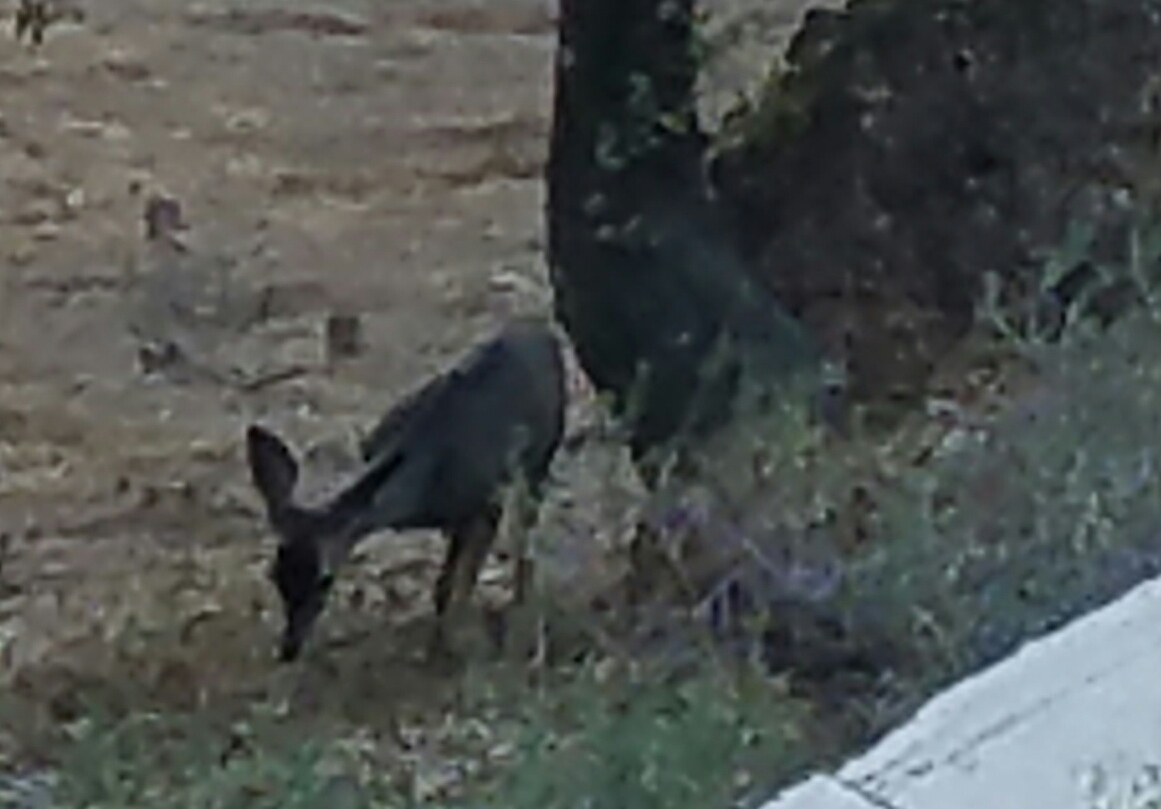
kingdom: Animalia
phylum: Chordata
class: Mammalia
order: Artiodactyla
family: Cervidae
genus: Odocoileus
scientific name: Odocoileus hemionus
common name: Mule deer
